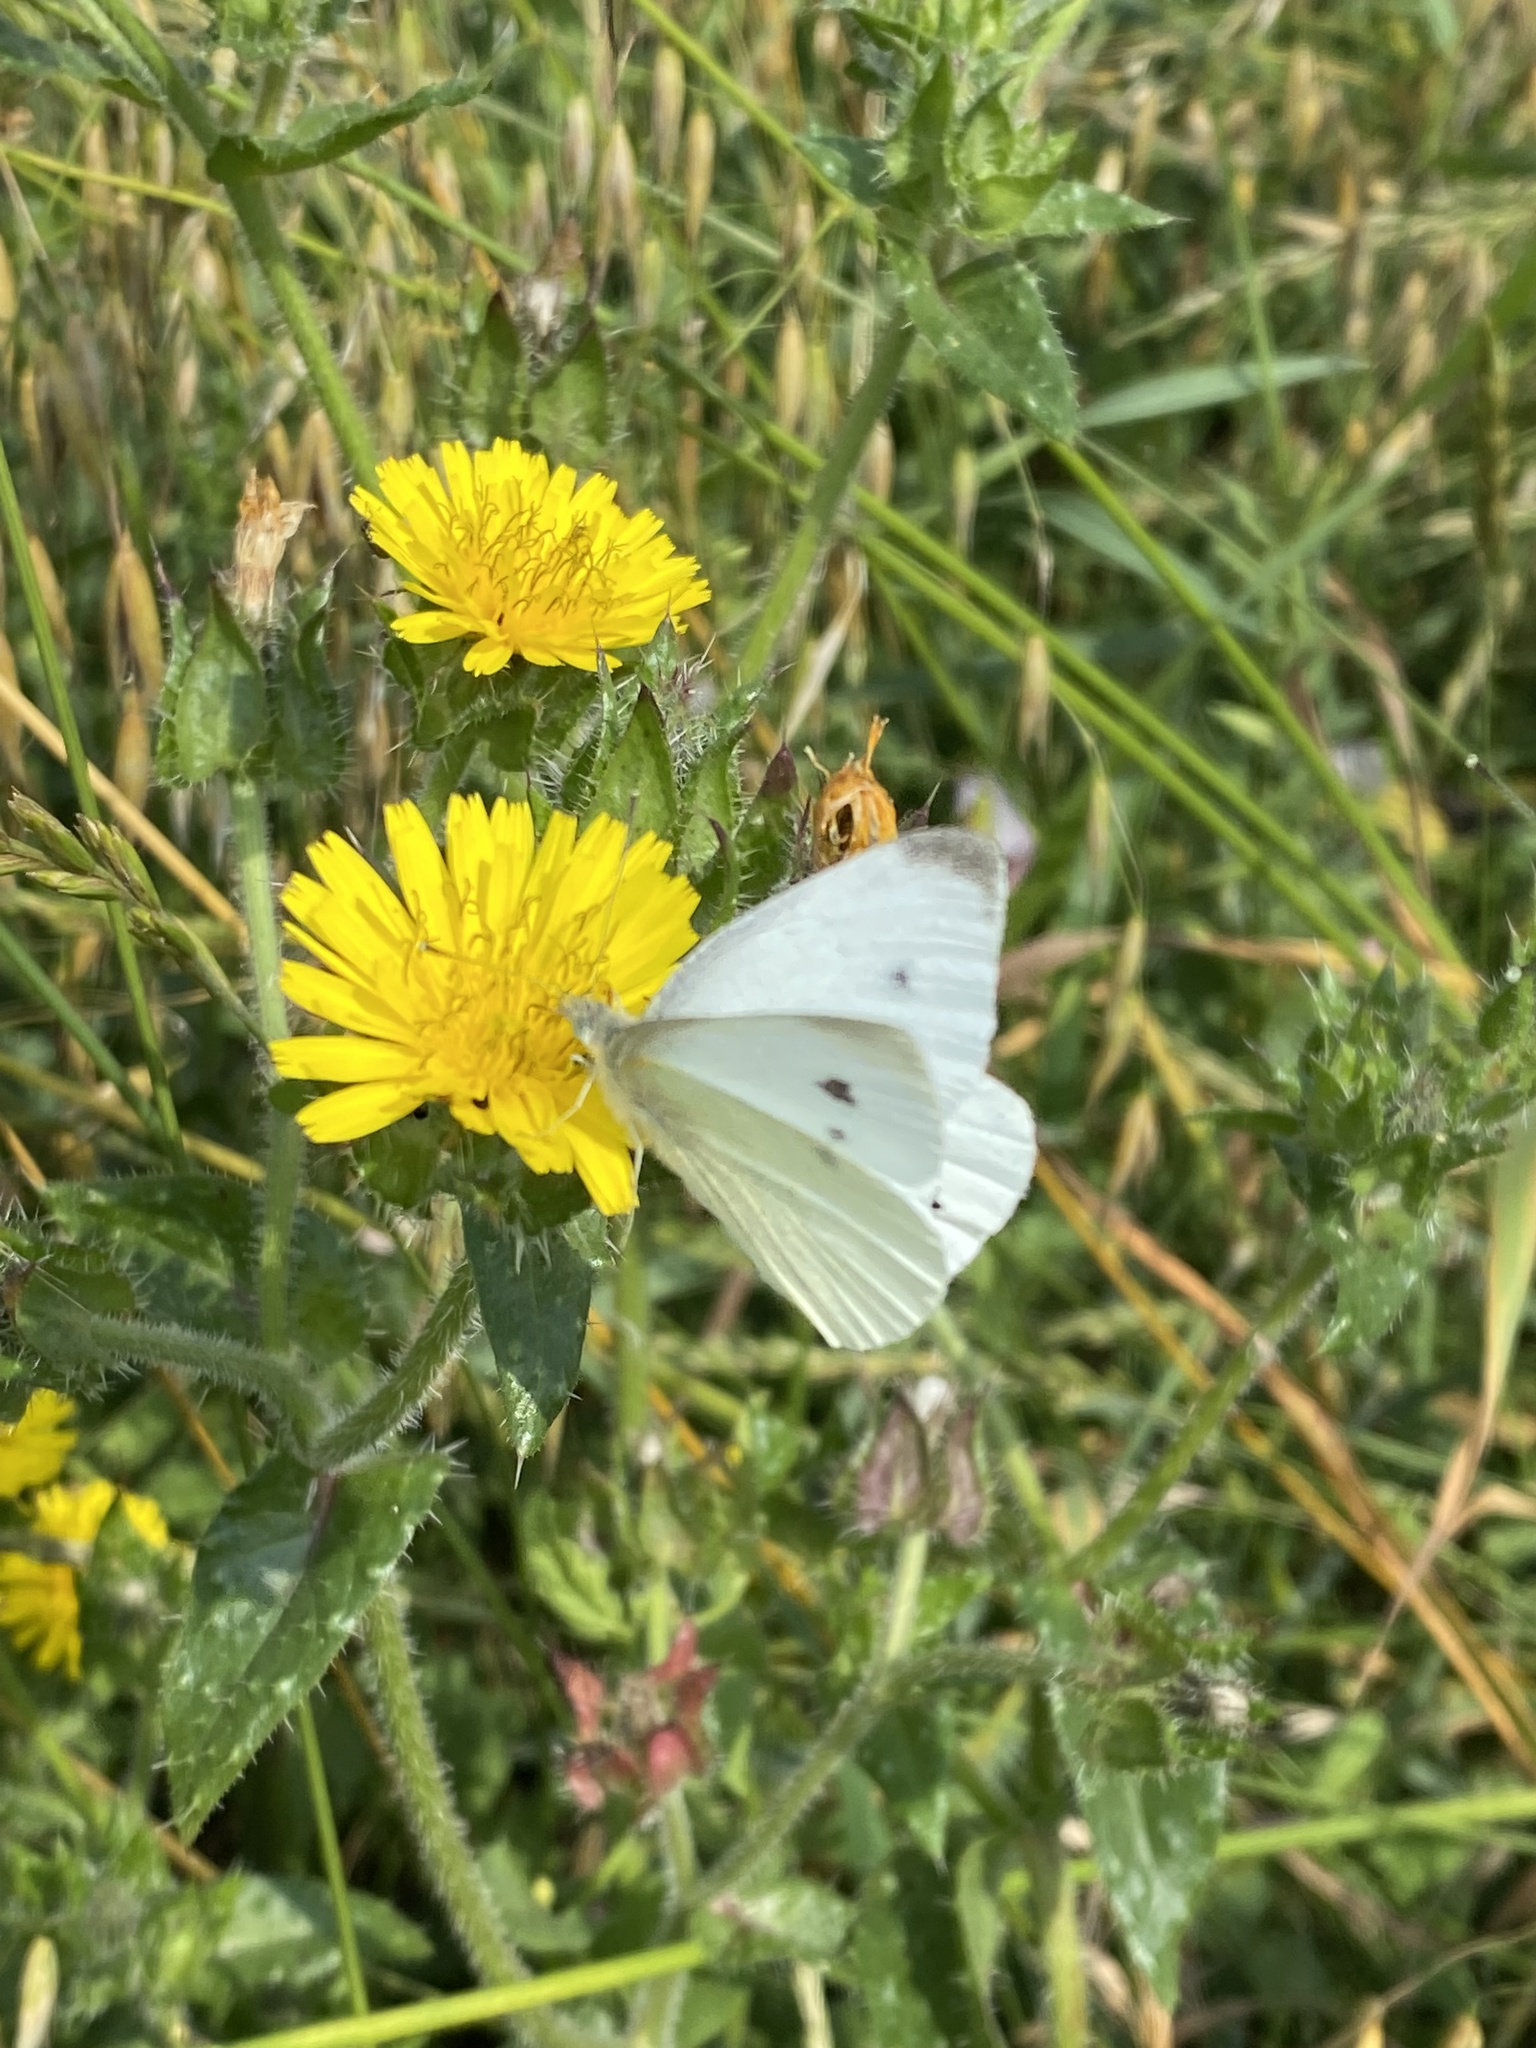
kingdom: Animalia
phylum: Arthropoda
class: Insecta
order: Lepidoptera
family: Pieridae
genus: Pieris
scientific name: Pieris rapae
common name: Small white
